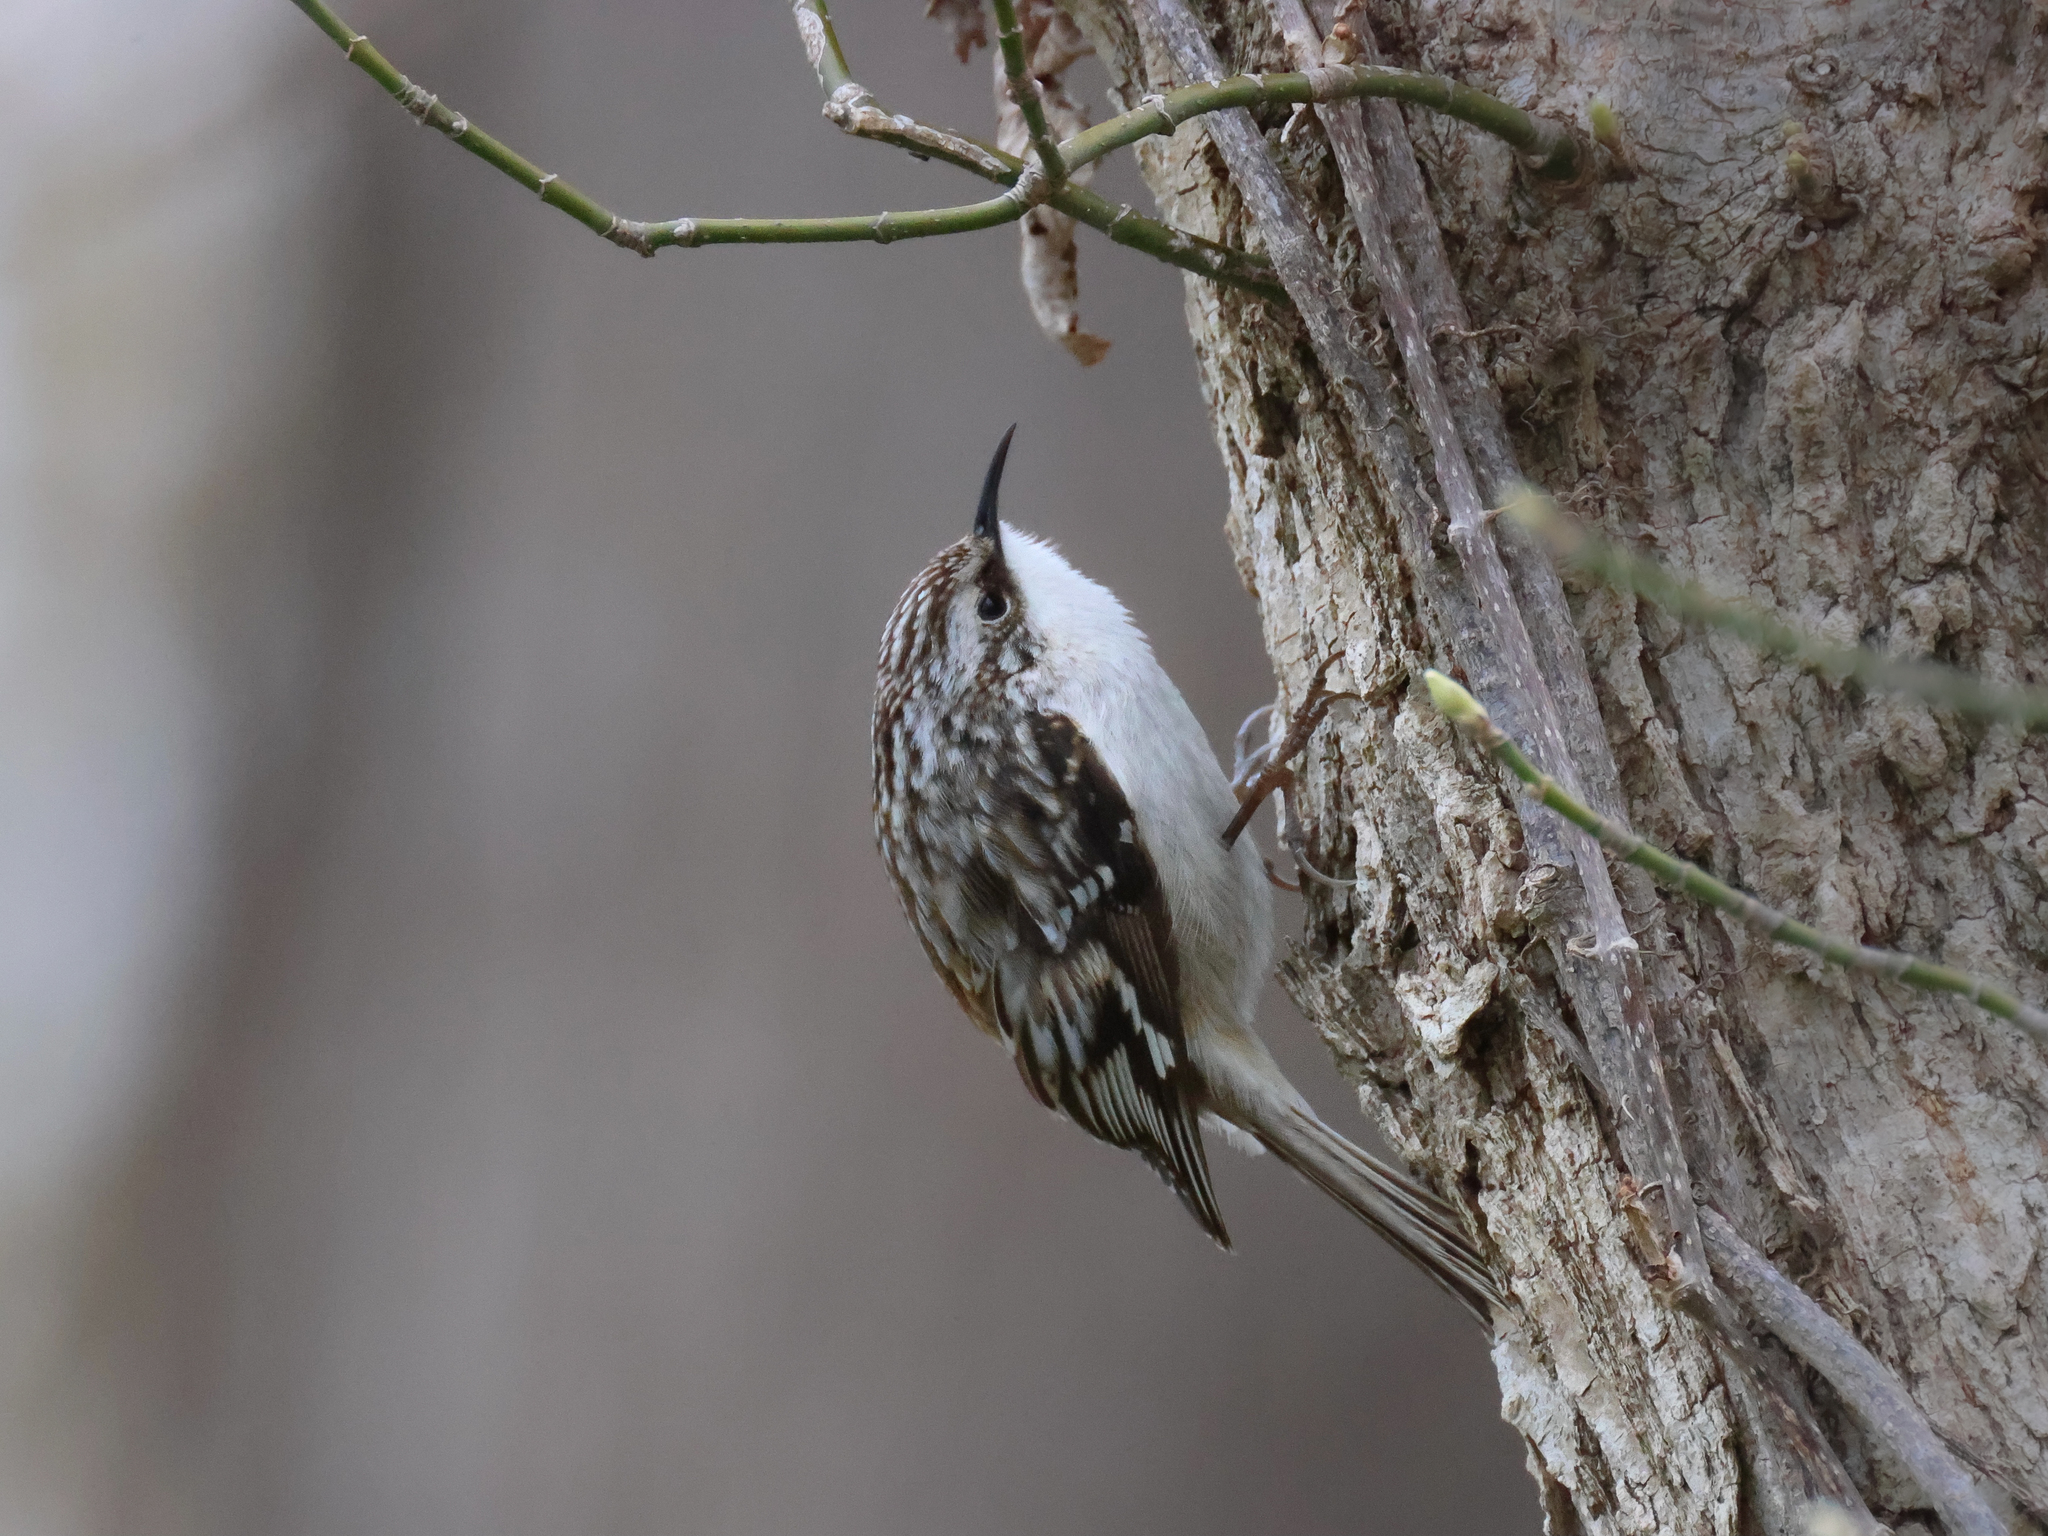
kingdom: Animalia
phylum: Chordata
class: Aves
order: Passeriformes
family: Certhiidae
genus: Certhia
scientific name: Certhia americana
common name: Brown creeper
